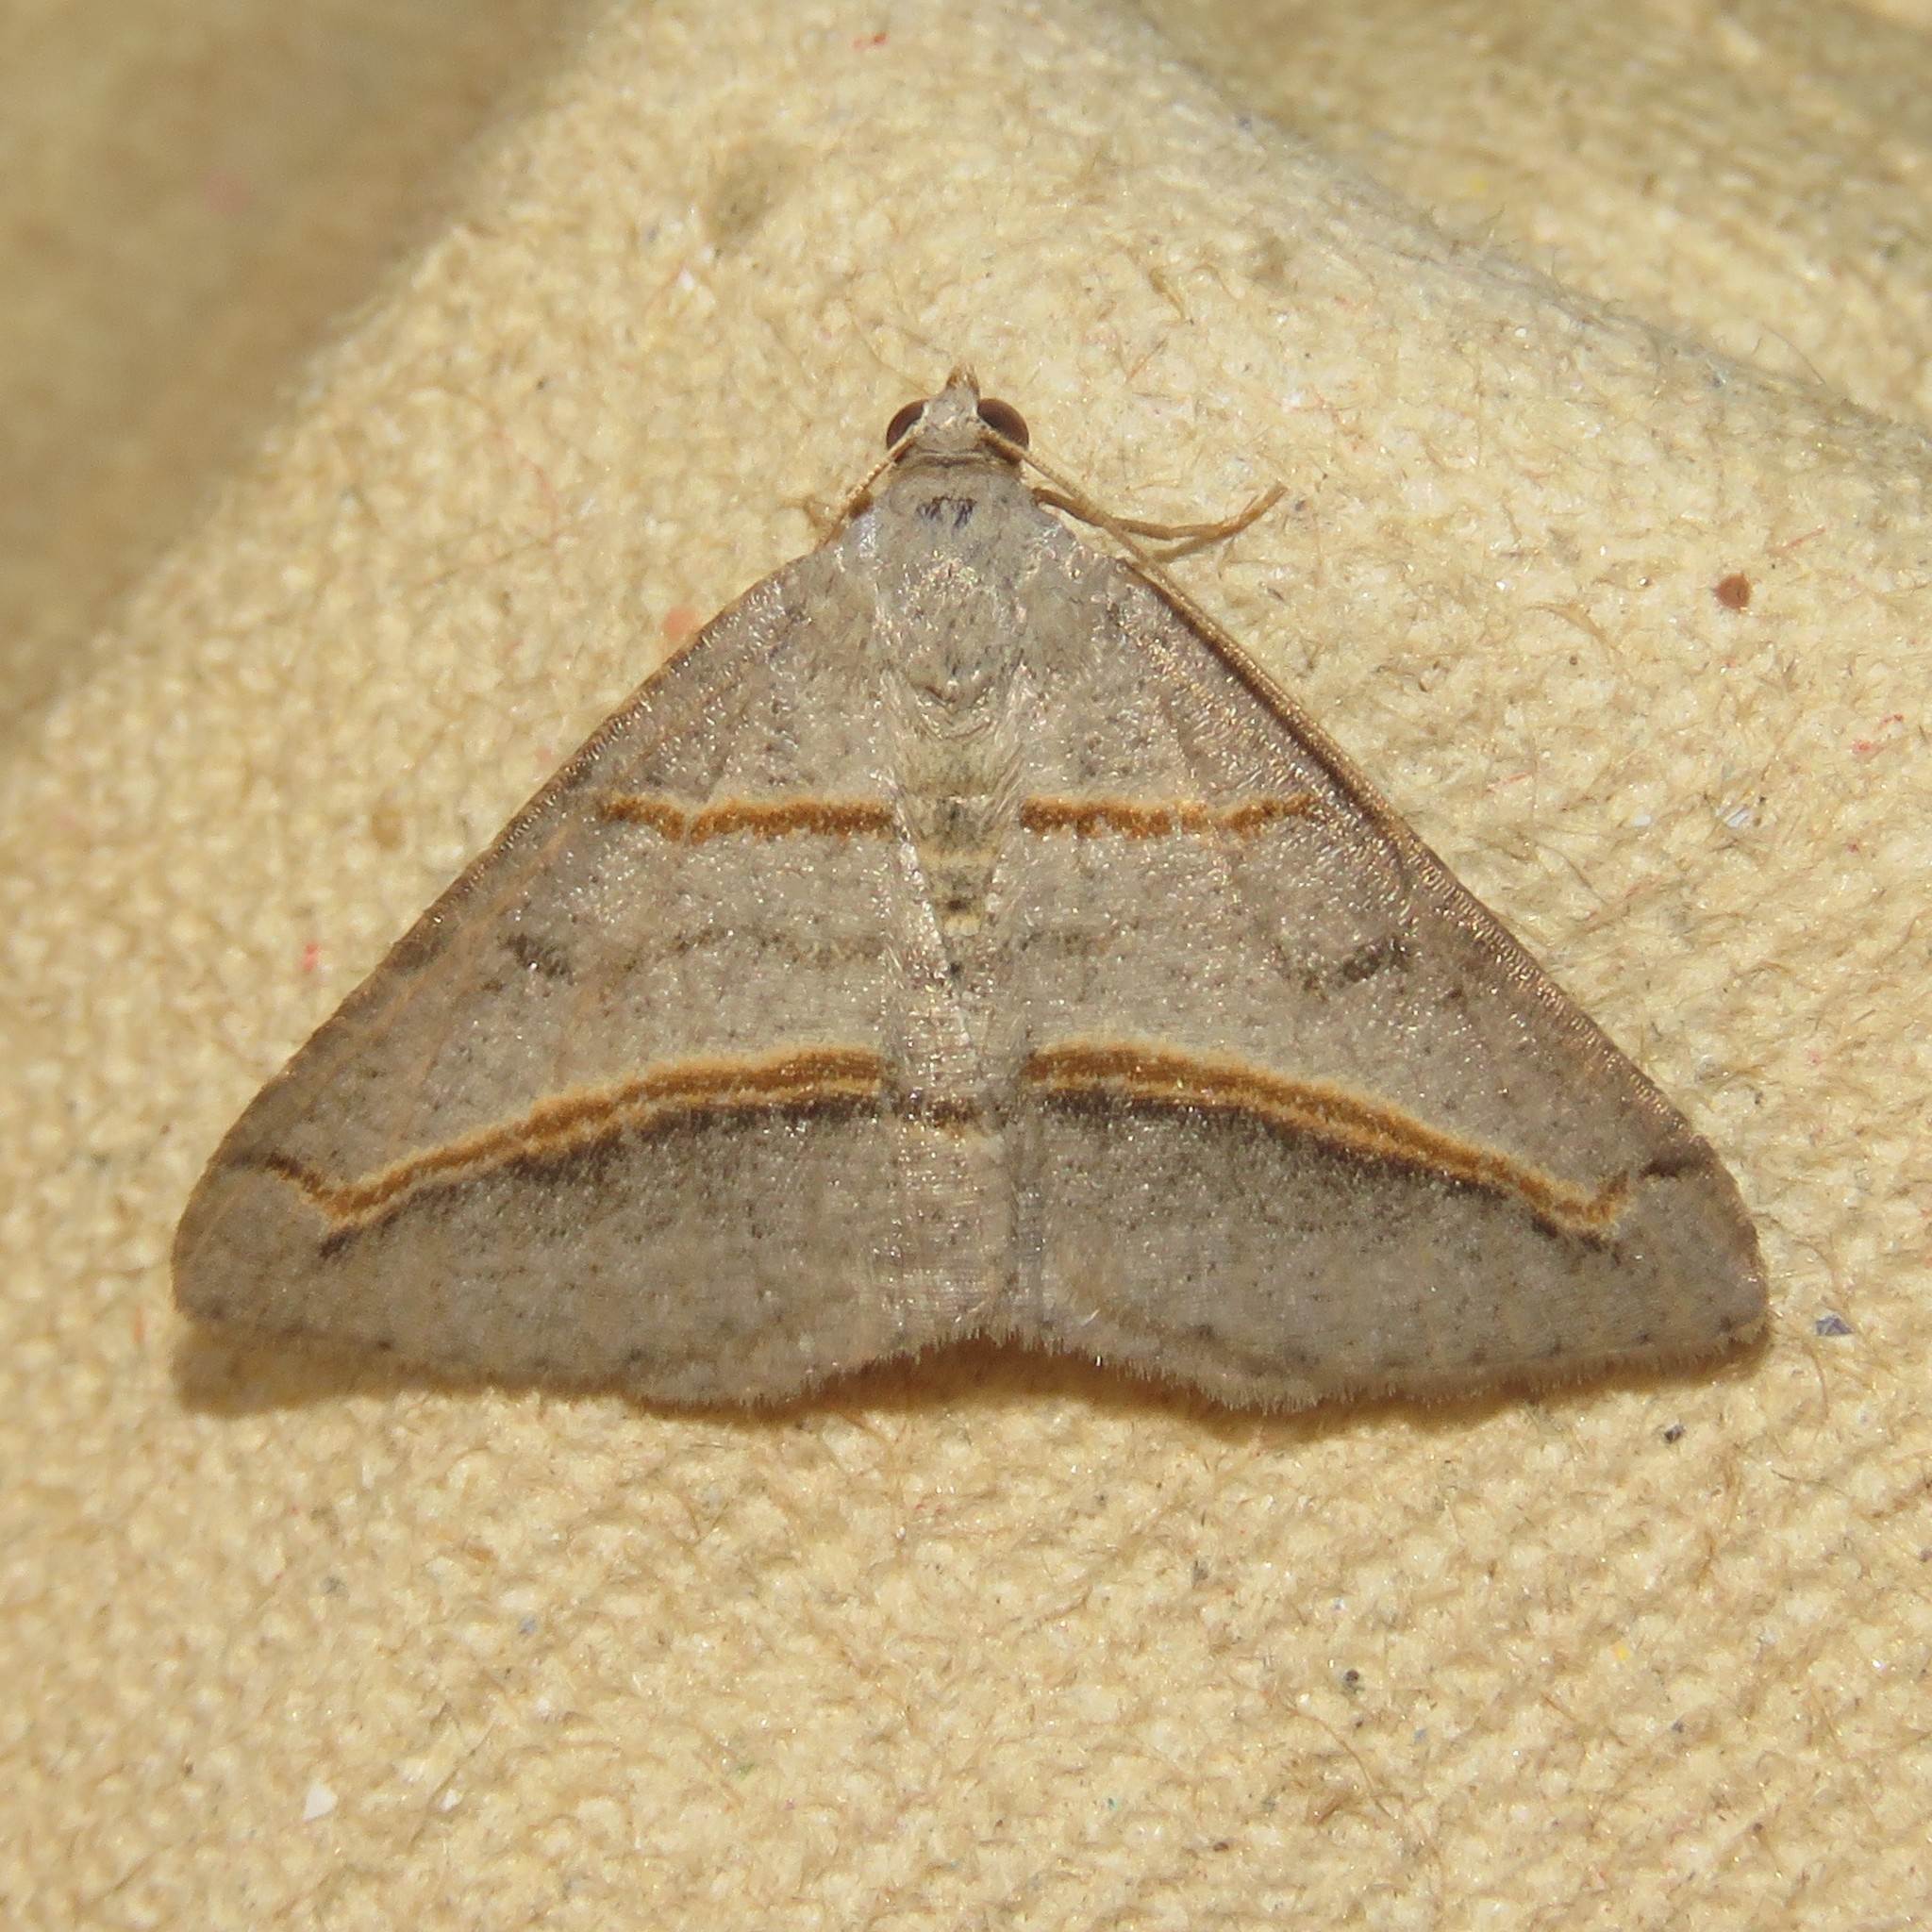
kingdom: Animalia
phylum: Arthropoda
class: Insecta
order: Lepidoptera
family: Geometridae
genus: Digrammia
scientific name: Digrammia mellistrigata
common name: Yellow-lined angle
